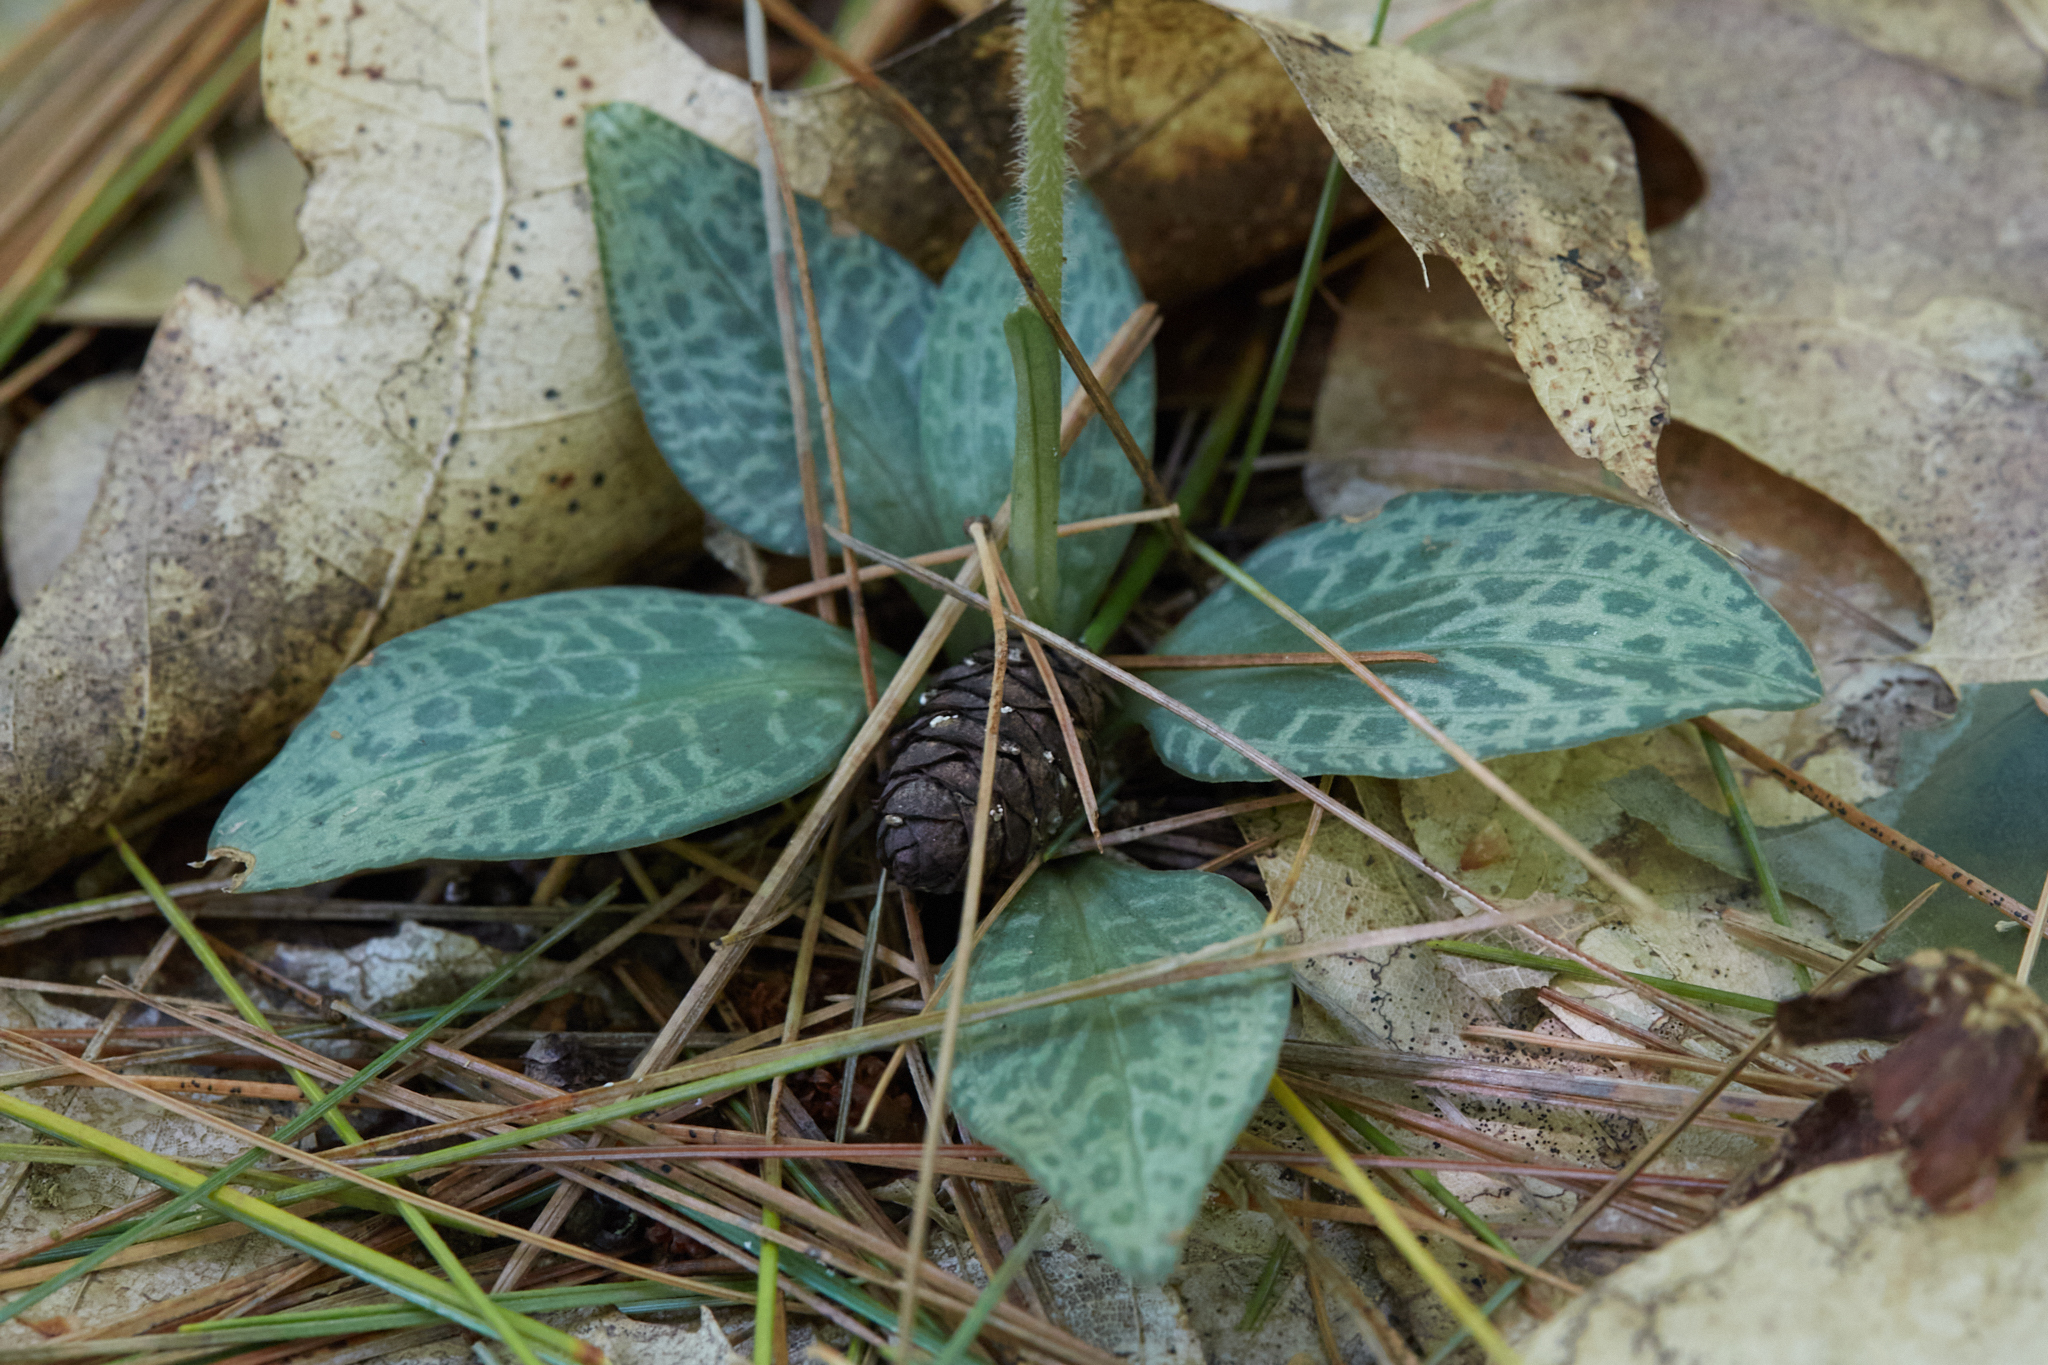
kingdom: Plantae
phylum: Tracheophyta
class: Liliopsida
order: Asparagales
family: Orchidaceae
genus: Goodyera
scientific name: Goodyera tesselata
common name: Checkered rattlesnake-plantain
